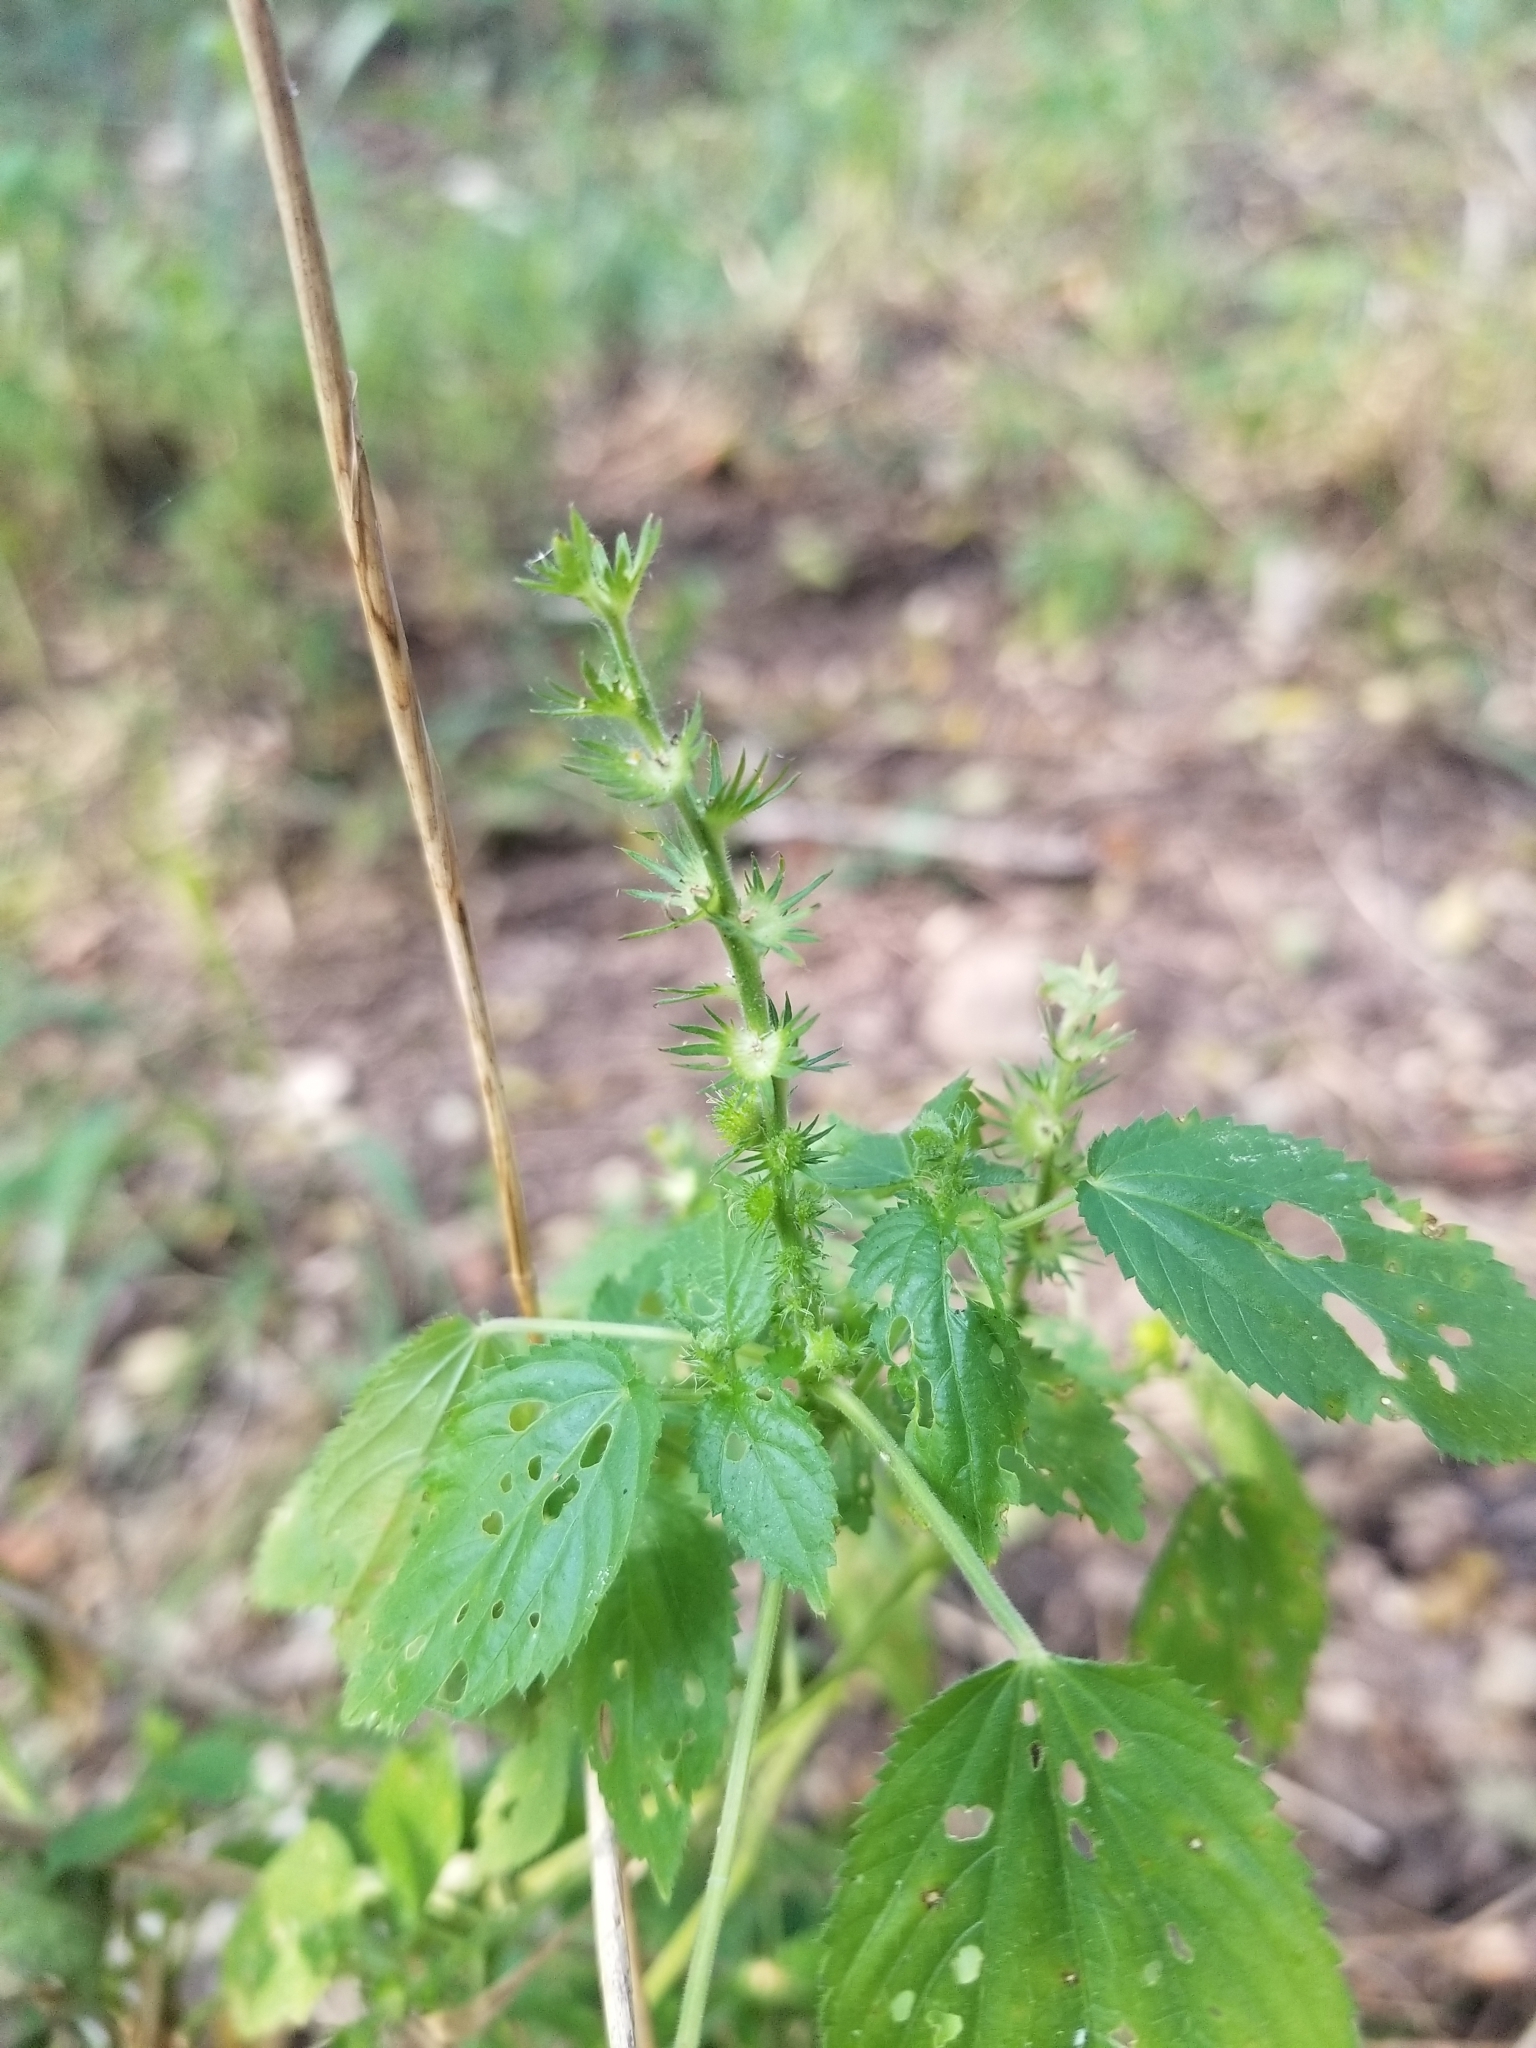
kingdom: Plantae
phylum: Tracheophyta
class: Magnoliopsida
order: Malpighiales
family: Euphorbiaceae
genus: Acalypha
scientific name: Acalypha ostryifolia
